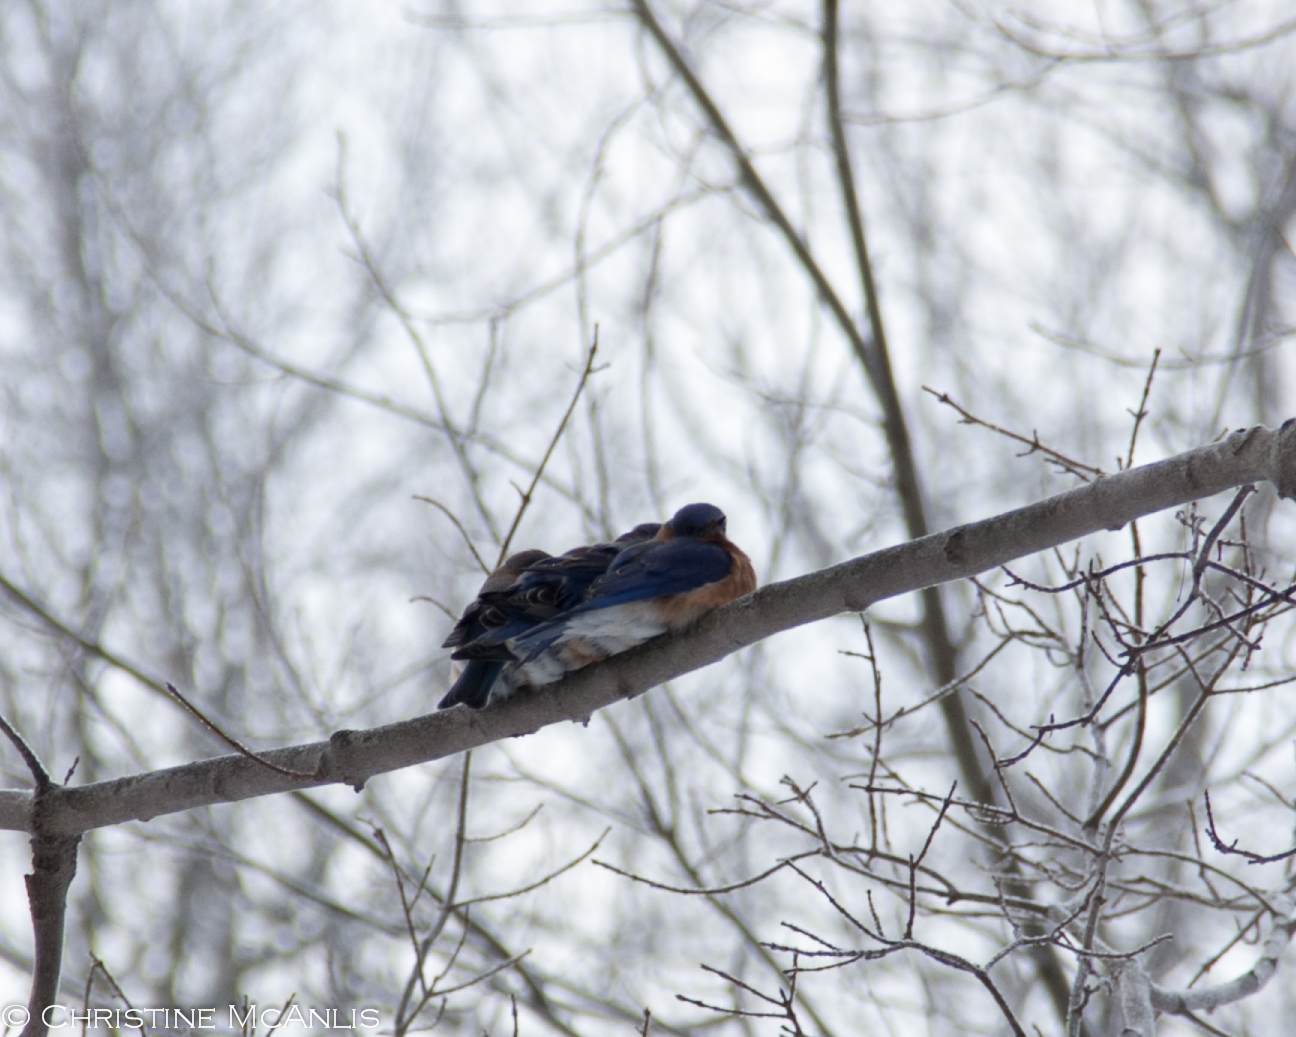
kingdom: Animalia
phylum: Chordata
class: Aves
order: Passeriformes
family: Turdidae
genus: Sialia
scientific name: Sialia sialis
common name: Eastern bluebird
